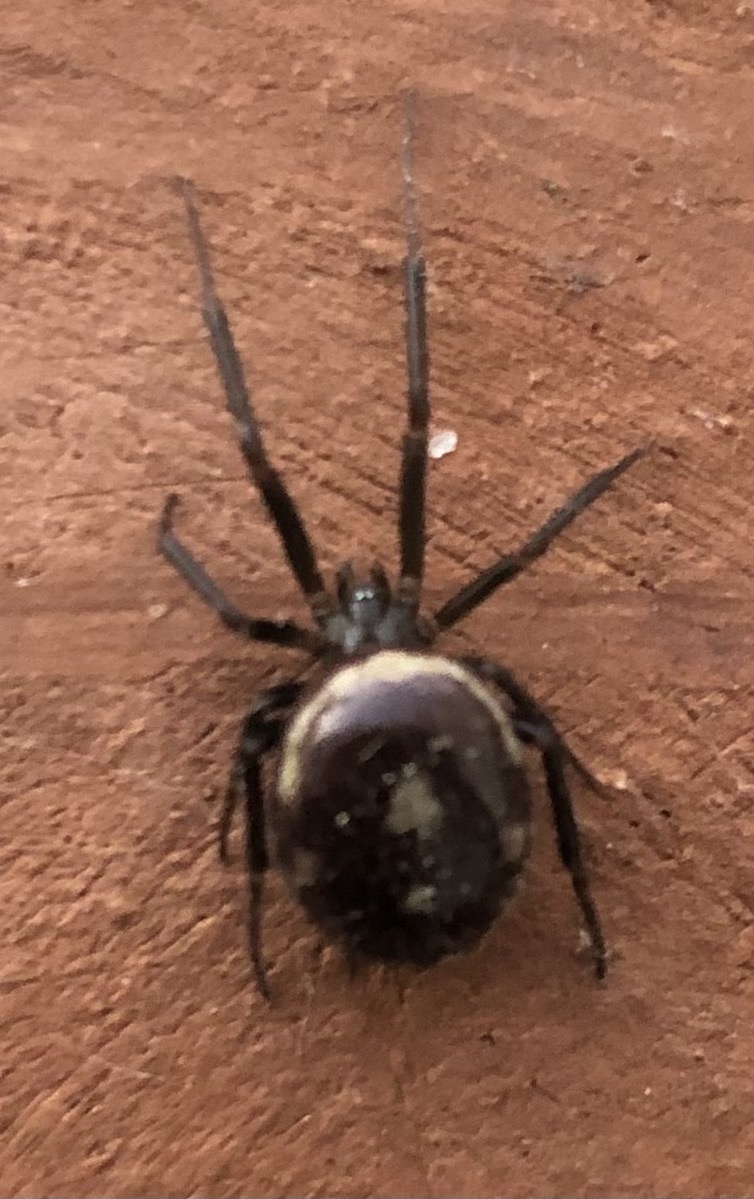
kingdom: Animalia
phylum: Arthropoda
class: Arachnida
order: Araneae
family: Theridiidae
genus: Steatoda
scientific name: Steatoda grossa
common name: False black widow
